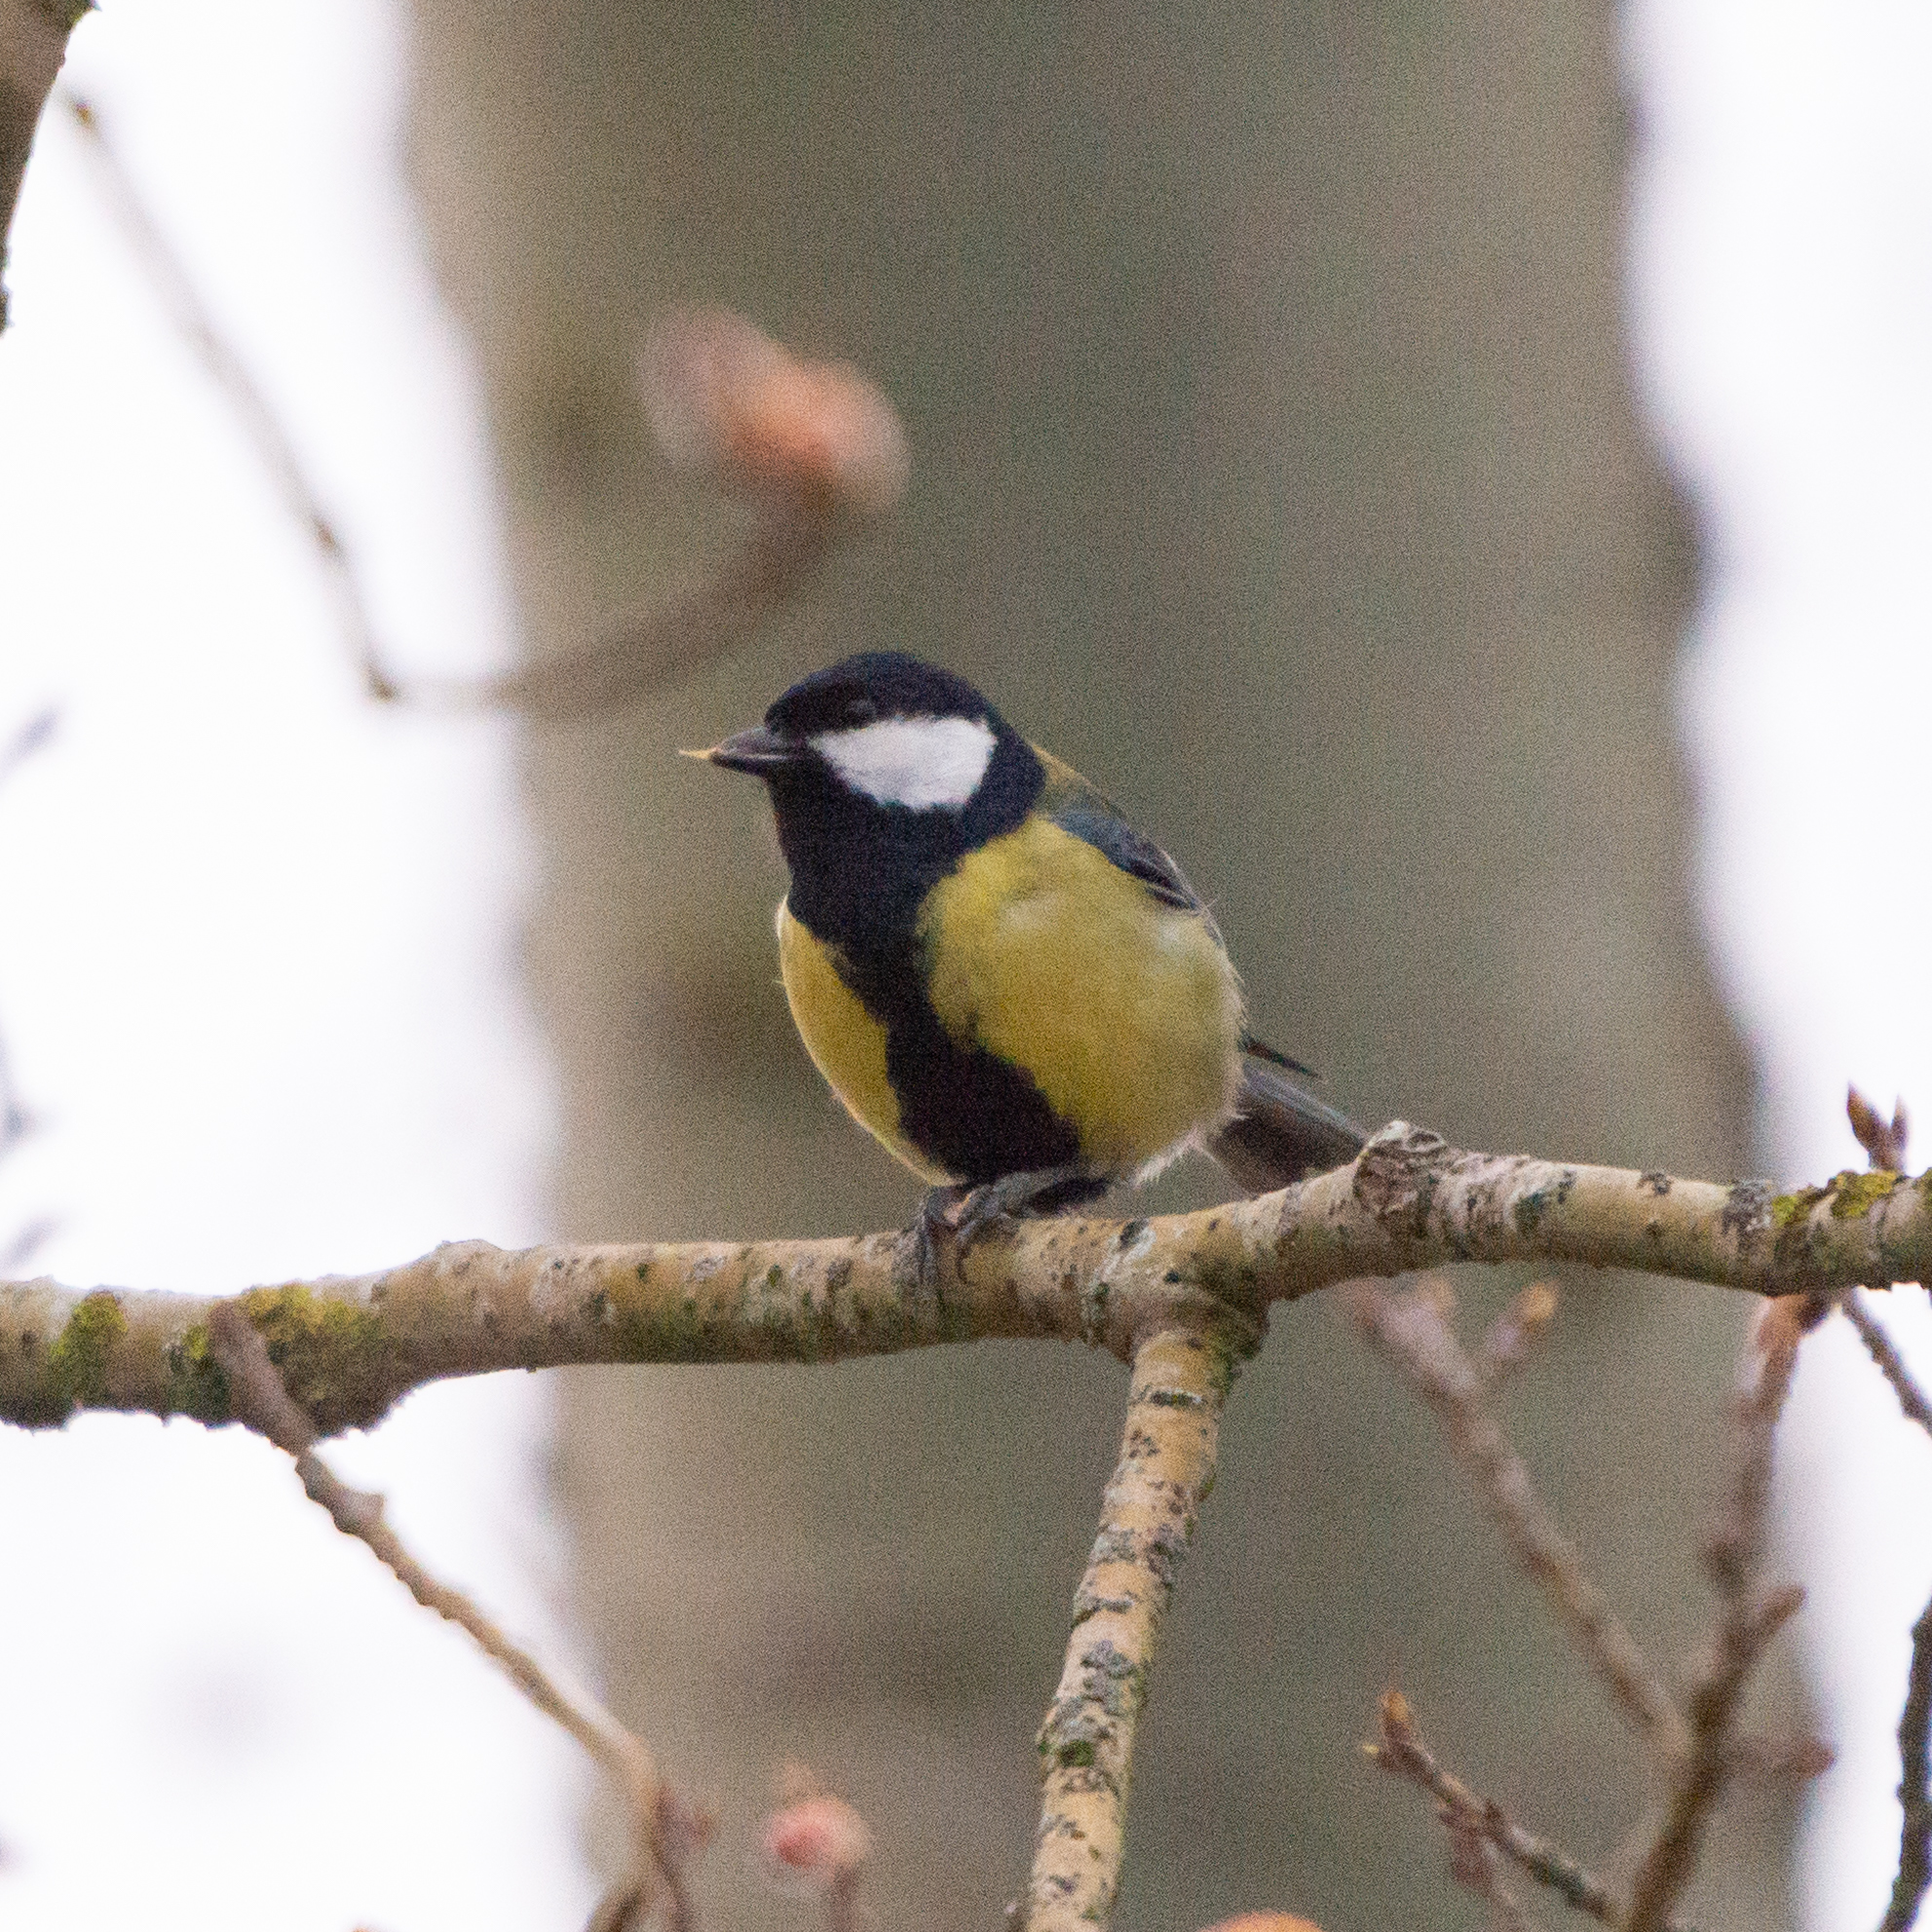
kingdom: Animalia
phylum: Chordata
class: Aves
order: Passeriformes
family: Paridae
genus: Parus
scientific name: Parus major
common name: Great tit
